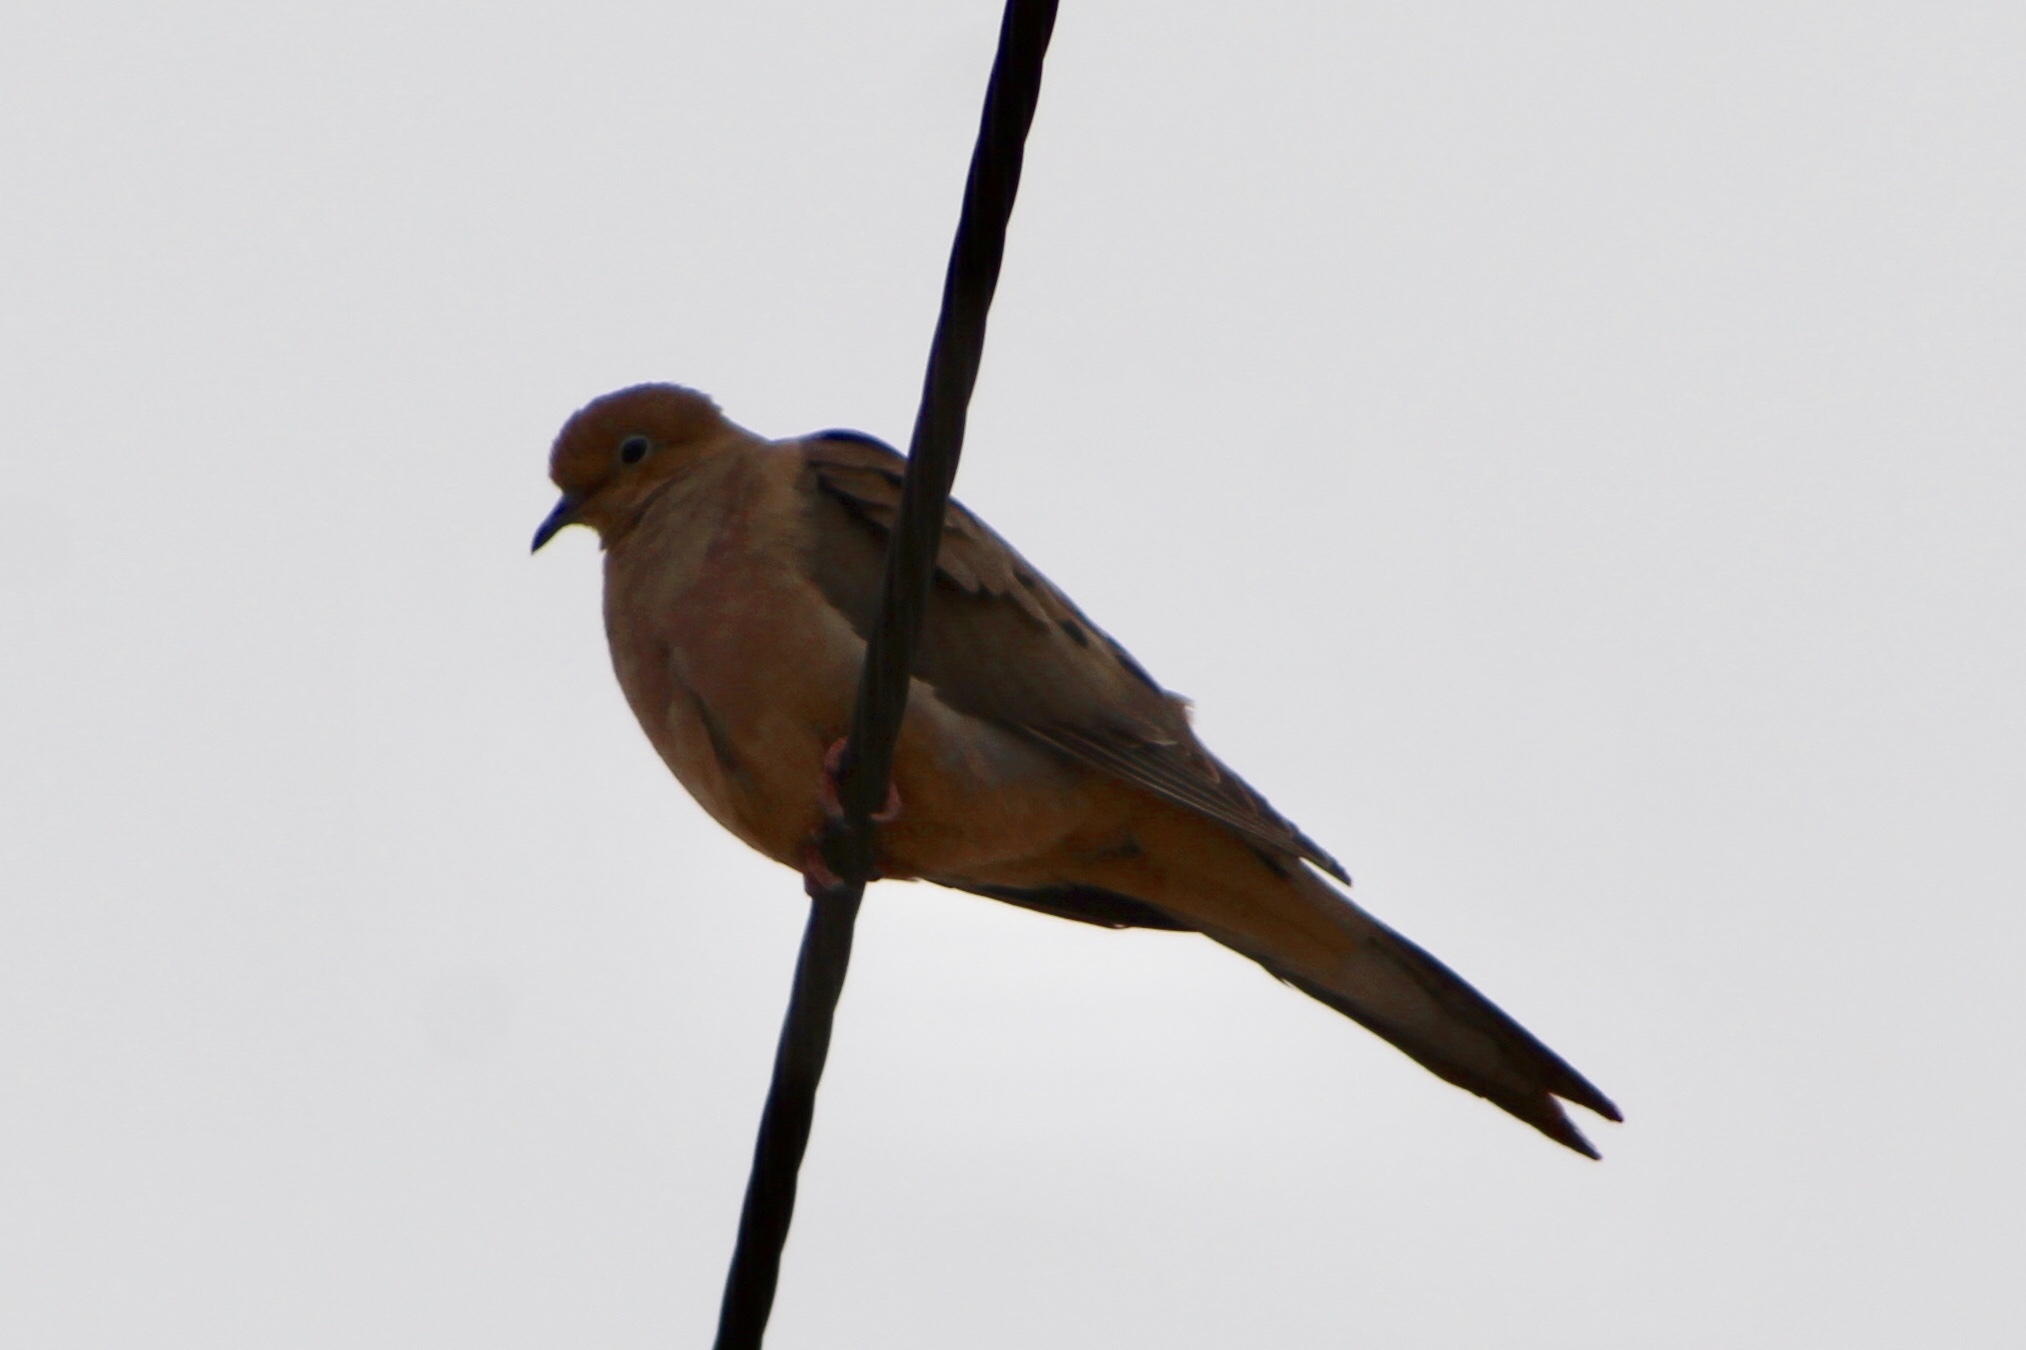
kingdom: Animalia
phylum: Chordata
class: Aves
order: Columbiformes
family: Columbidae
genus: Zenaida
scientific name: Zenaida macroura
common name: Mourning dove
